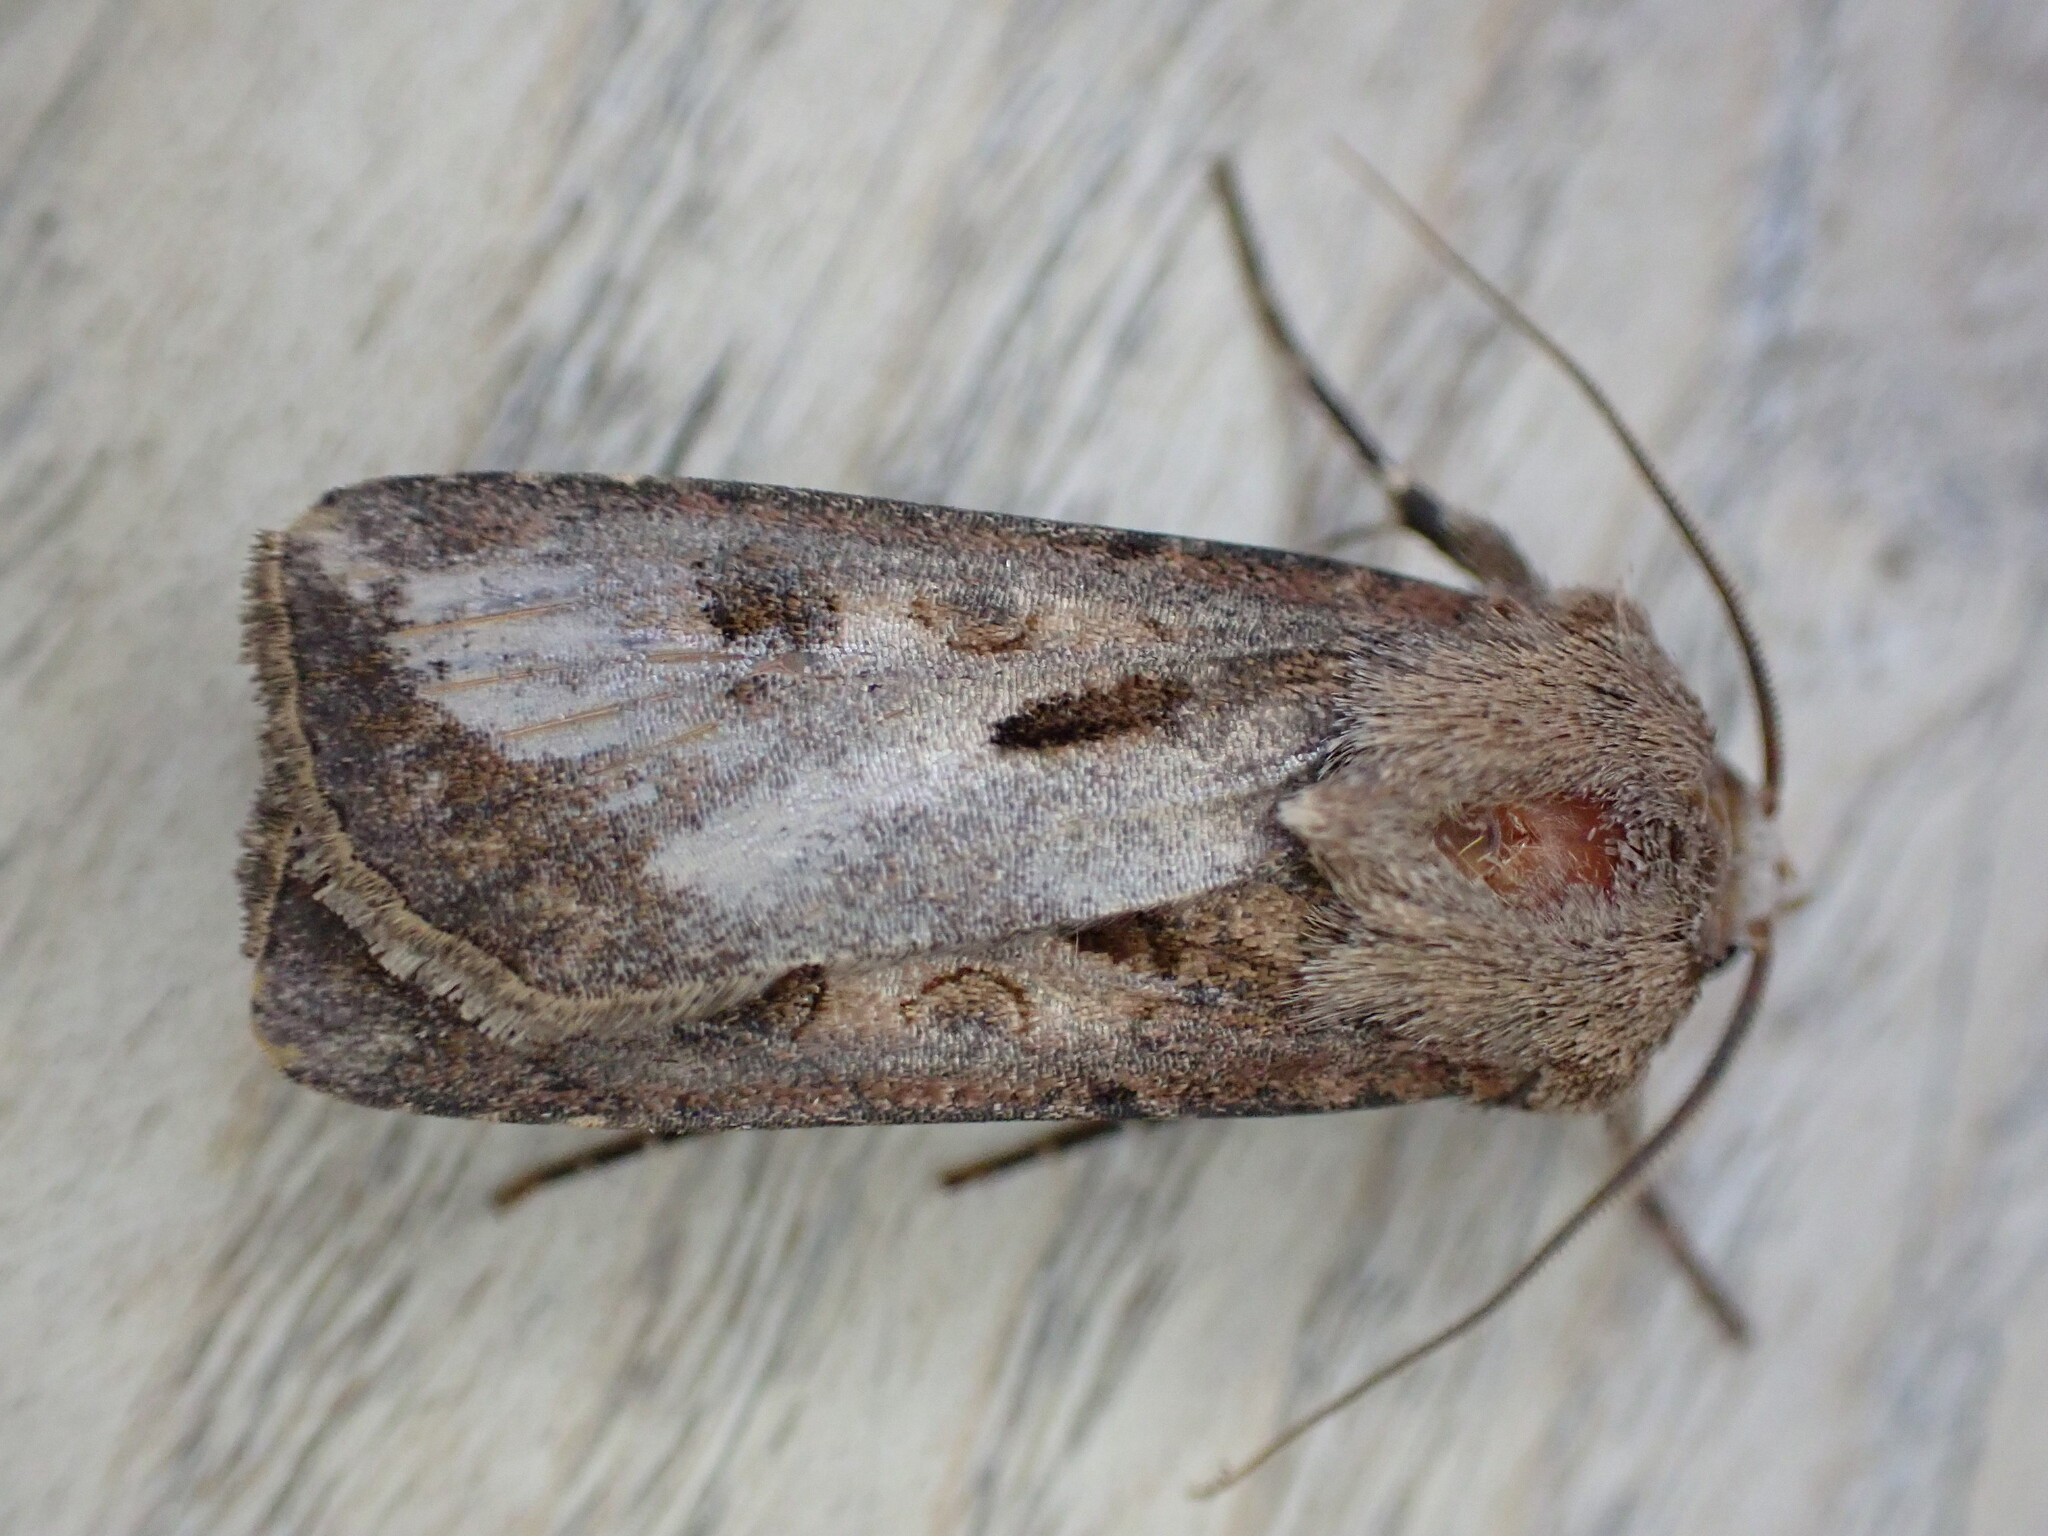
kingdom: Animalia
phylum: Arthropoda
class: Insecta
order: Lepidoptera
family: Noctuidae
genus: Agrotis
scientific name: Agrotis exclamationis
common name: Heart and dart
